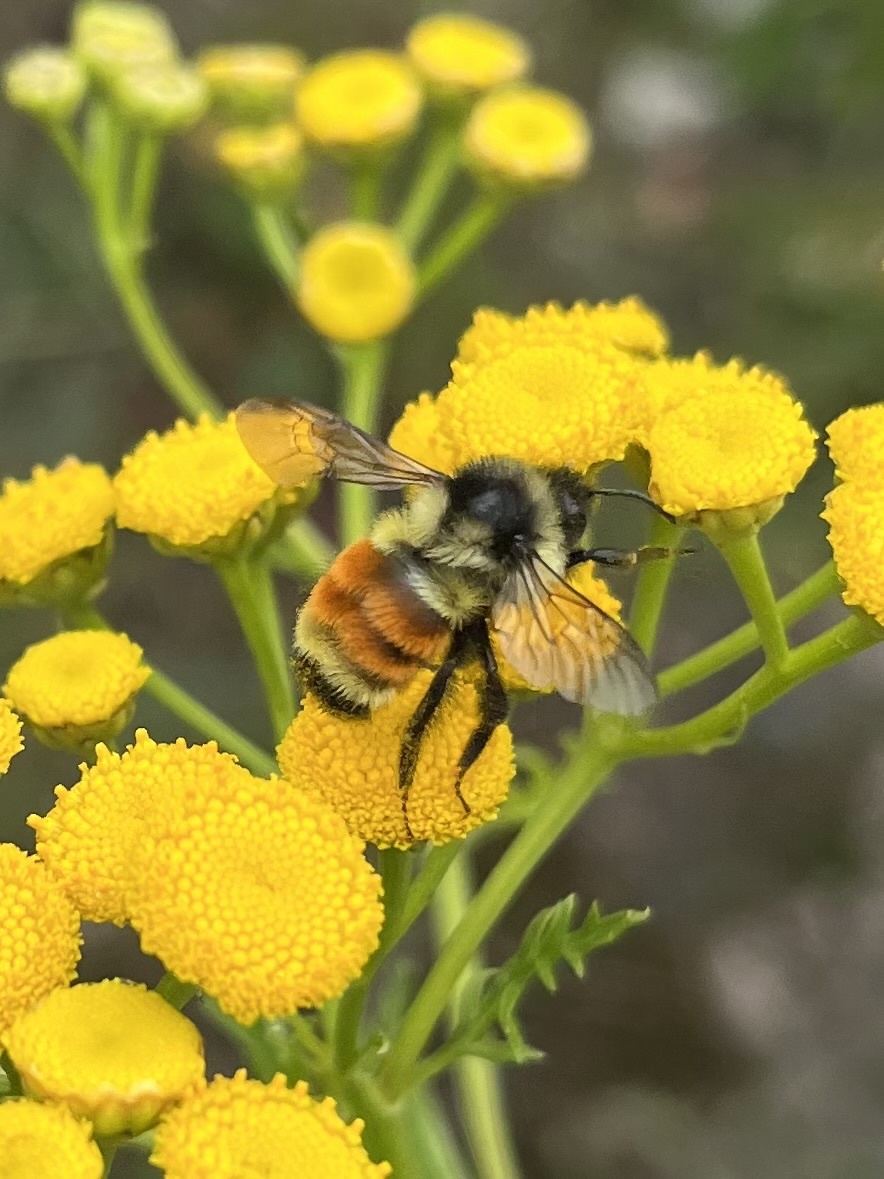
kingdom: Animalia
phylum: Arthropoda
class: Insecta
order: Hymenoptera
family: Apidae
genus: Bombus
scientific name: Bombus ternarius
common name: Tri-colored bumble bee
